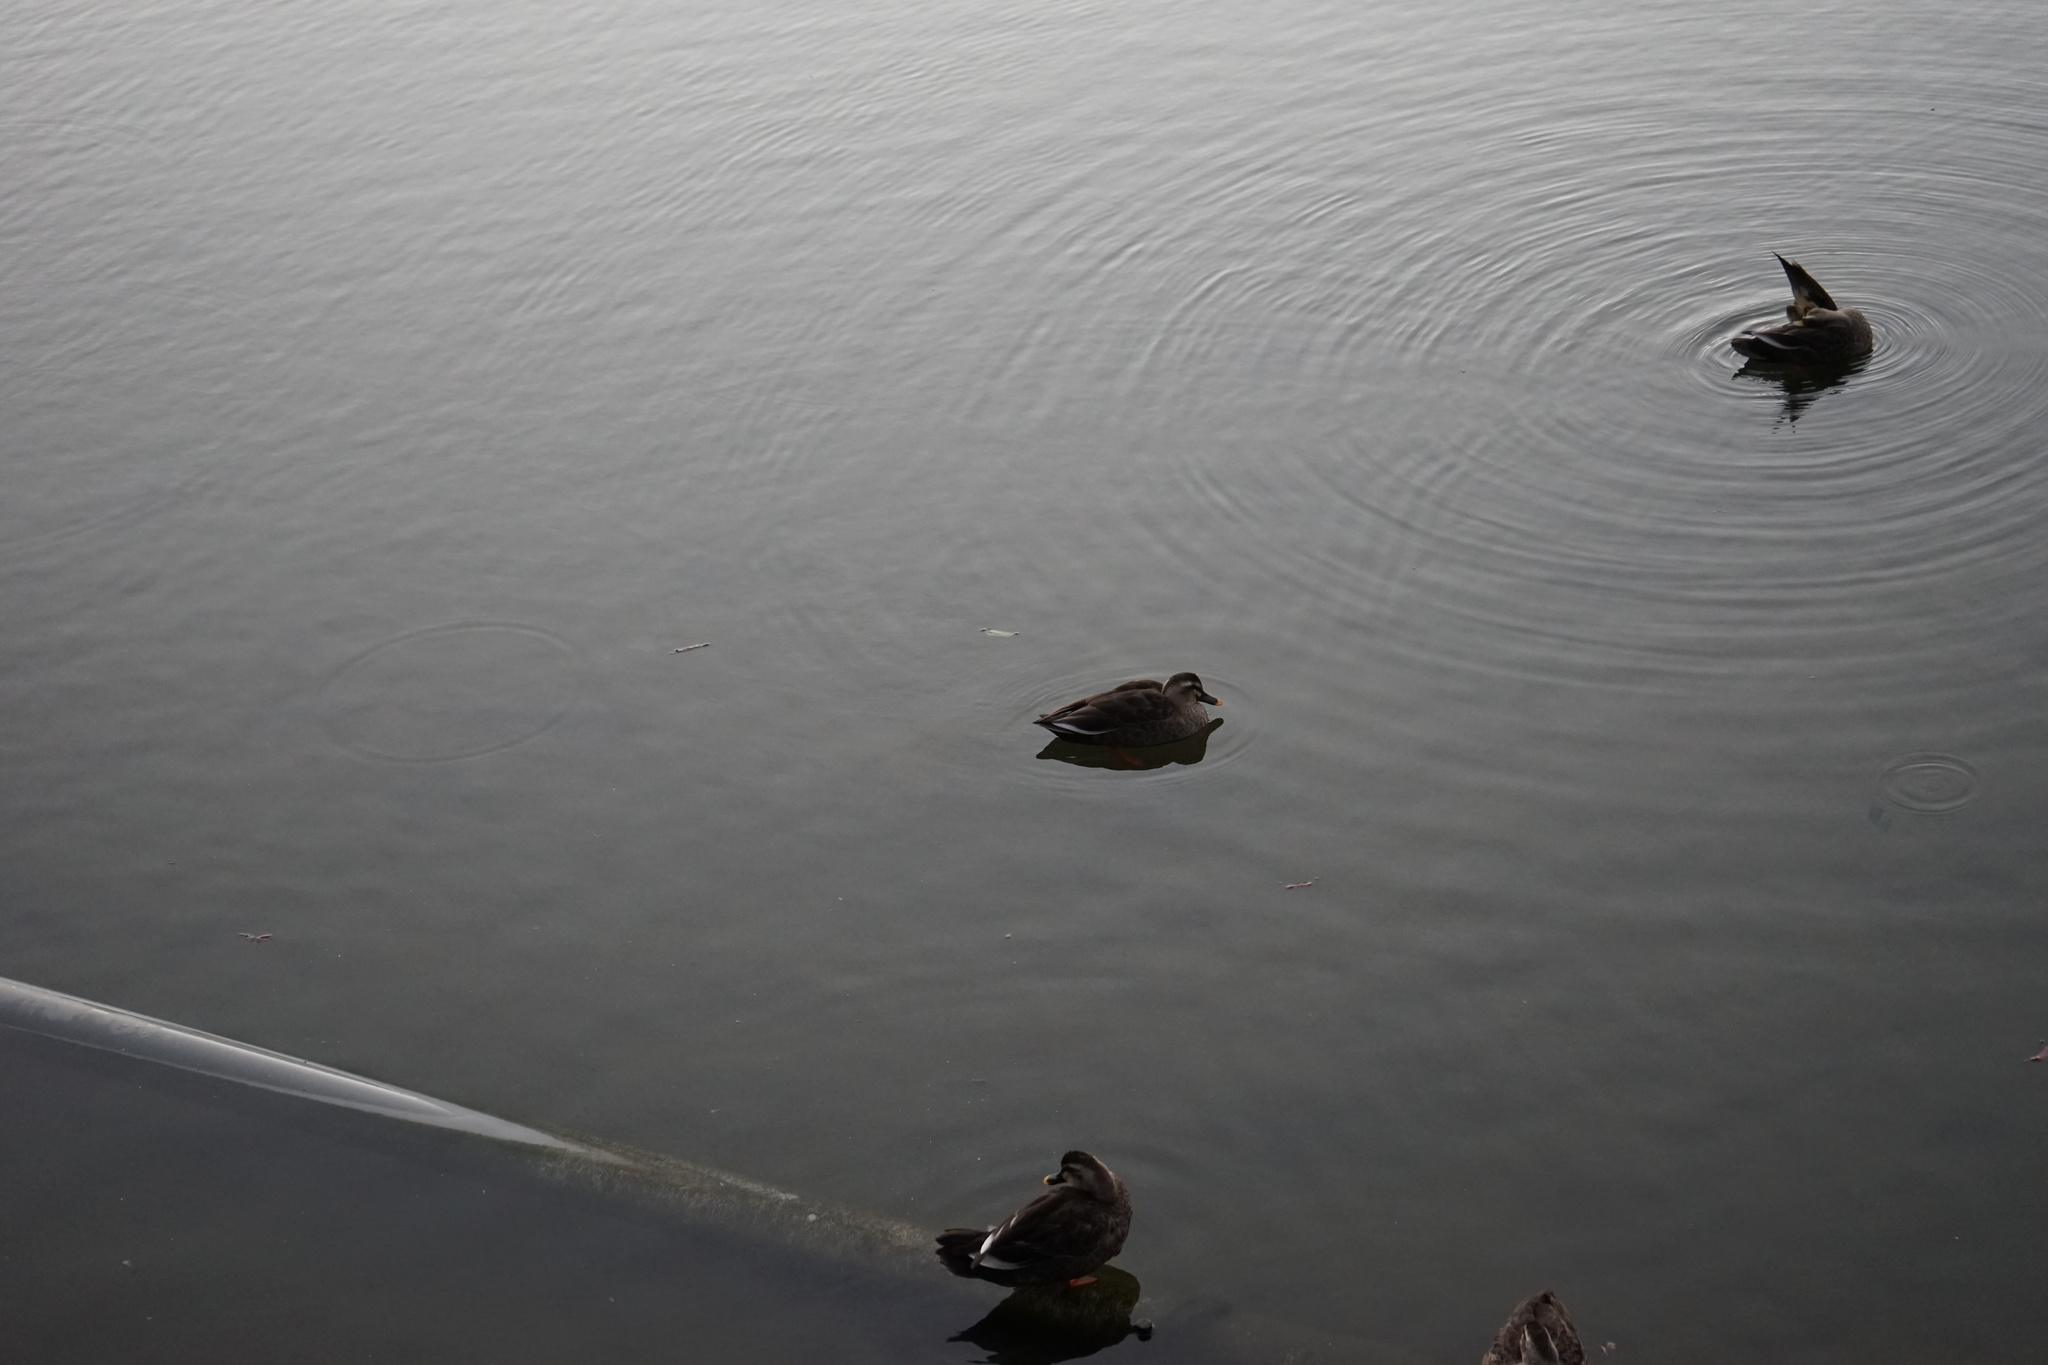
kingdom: Animalia
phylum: Chordata
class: Aves
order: Anseriformes
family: Anatidae
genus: Anas
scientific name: Anas zonorhyncha
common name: Eastern spot-billed duck
